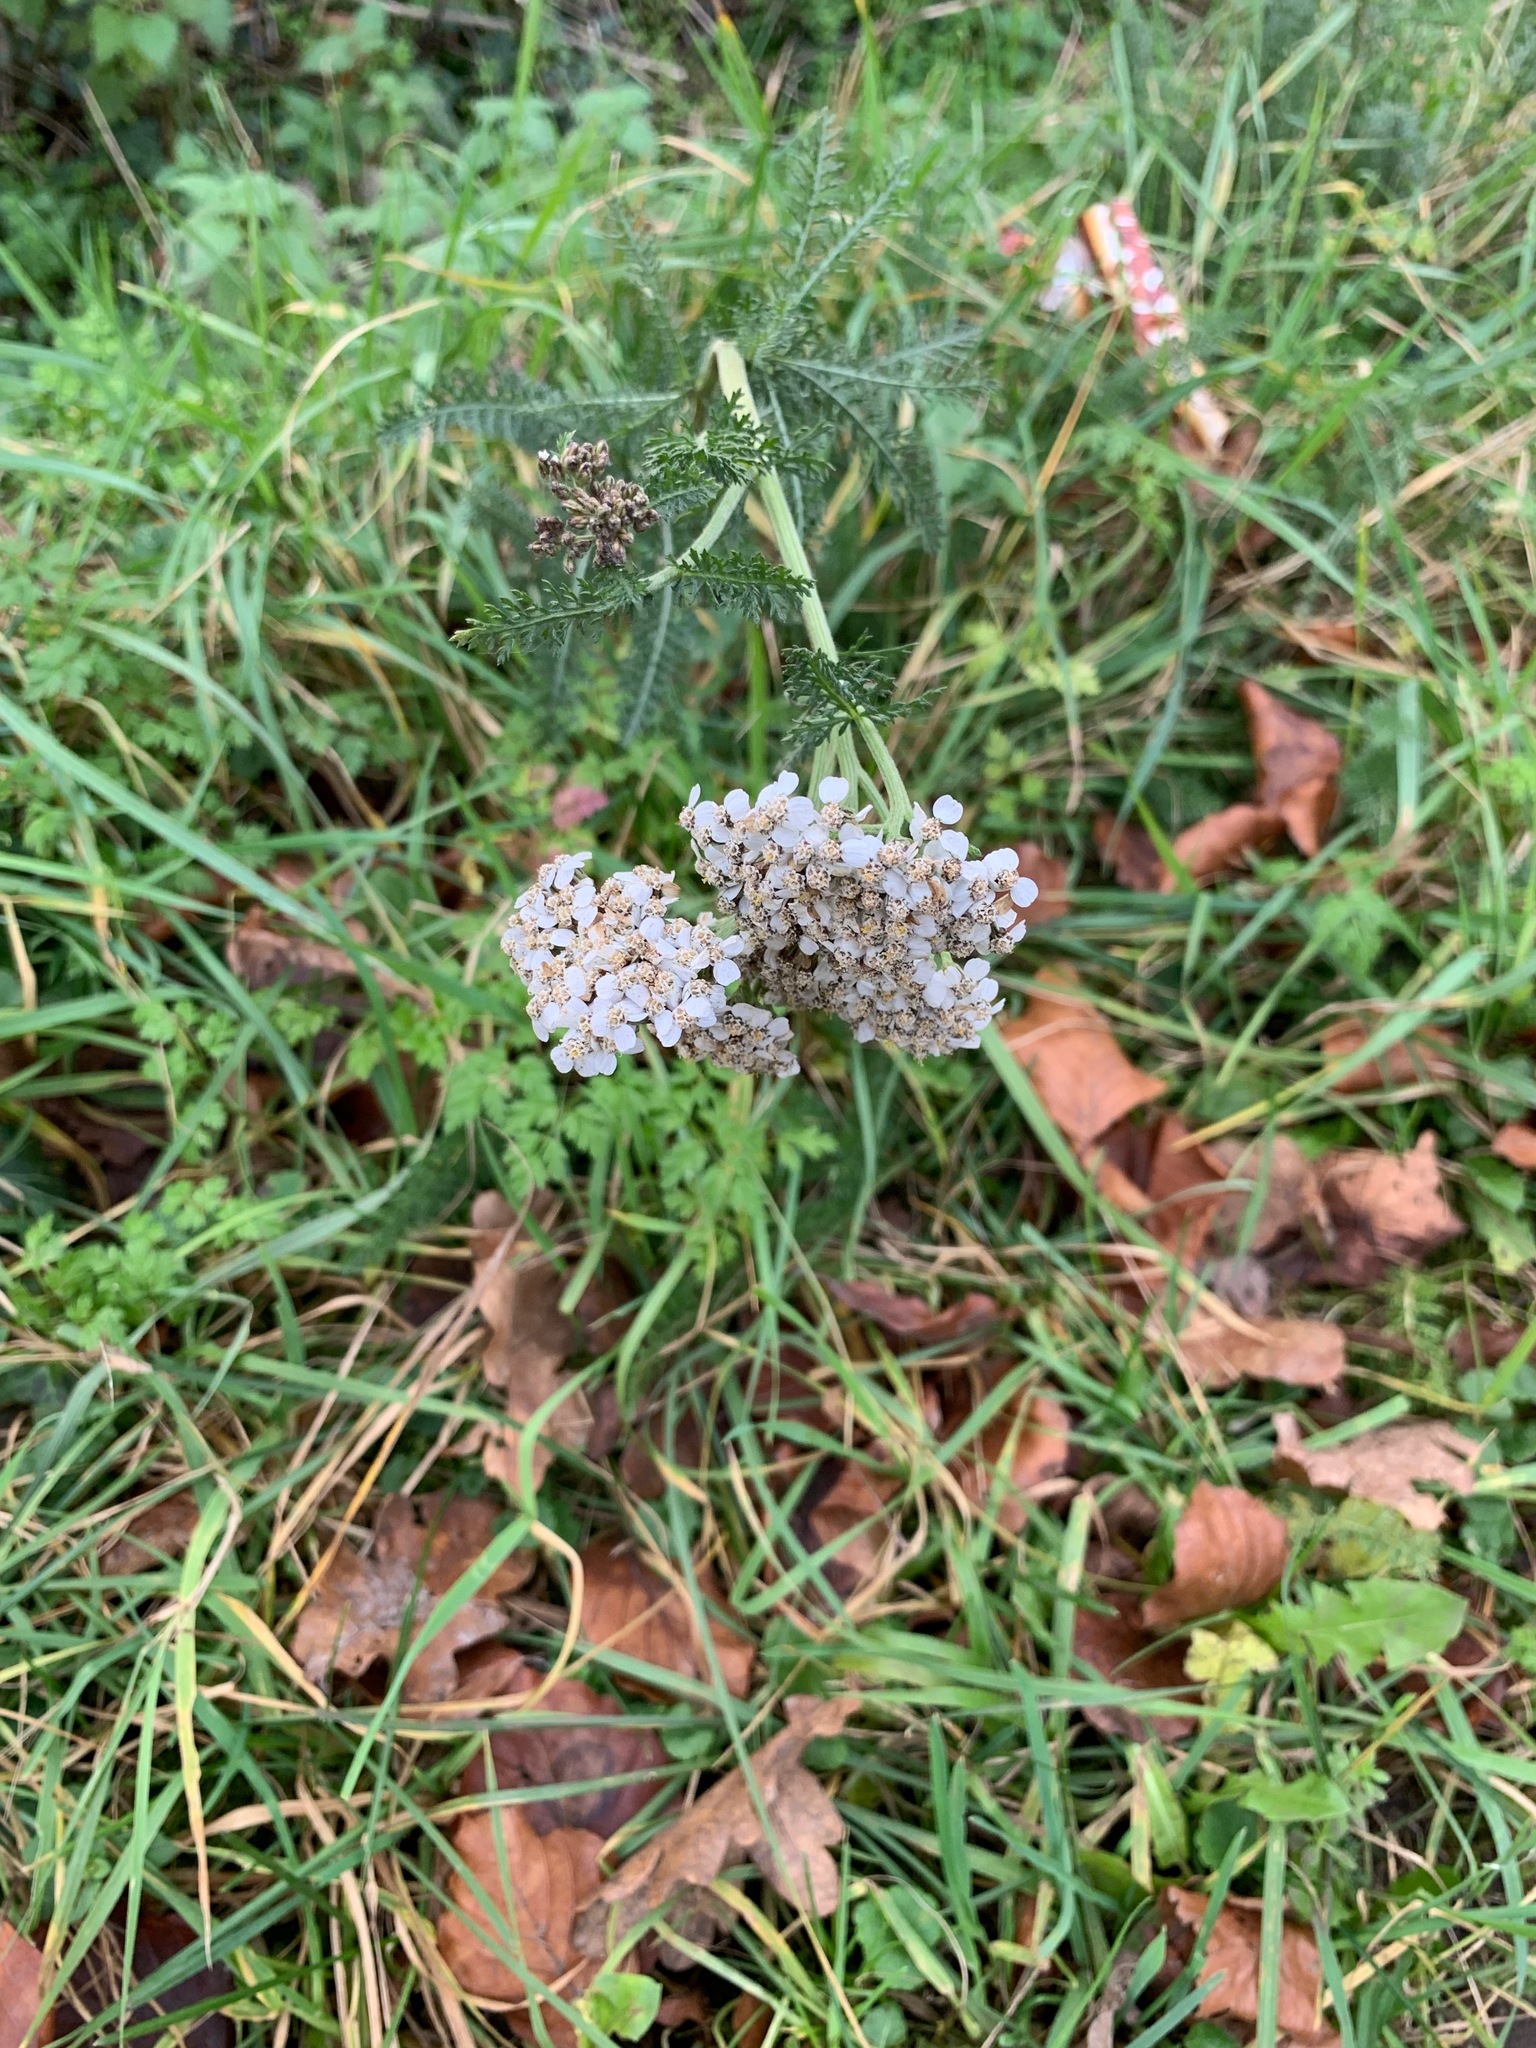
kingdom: Plantae
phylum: Tracheophyta
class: Magnoliopsida
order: Asterales
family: Asteraceae
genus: Achillea
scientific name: Achillea millefolium
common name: Yarrow
